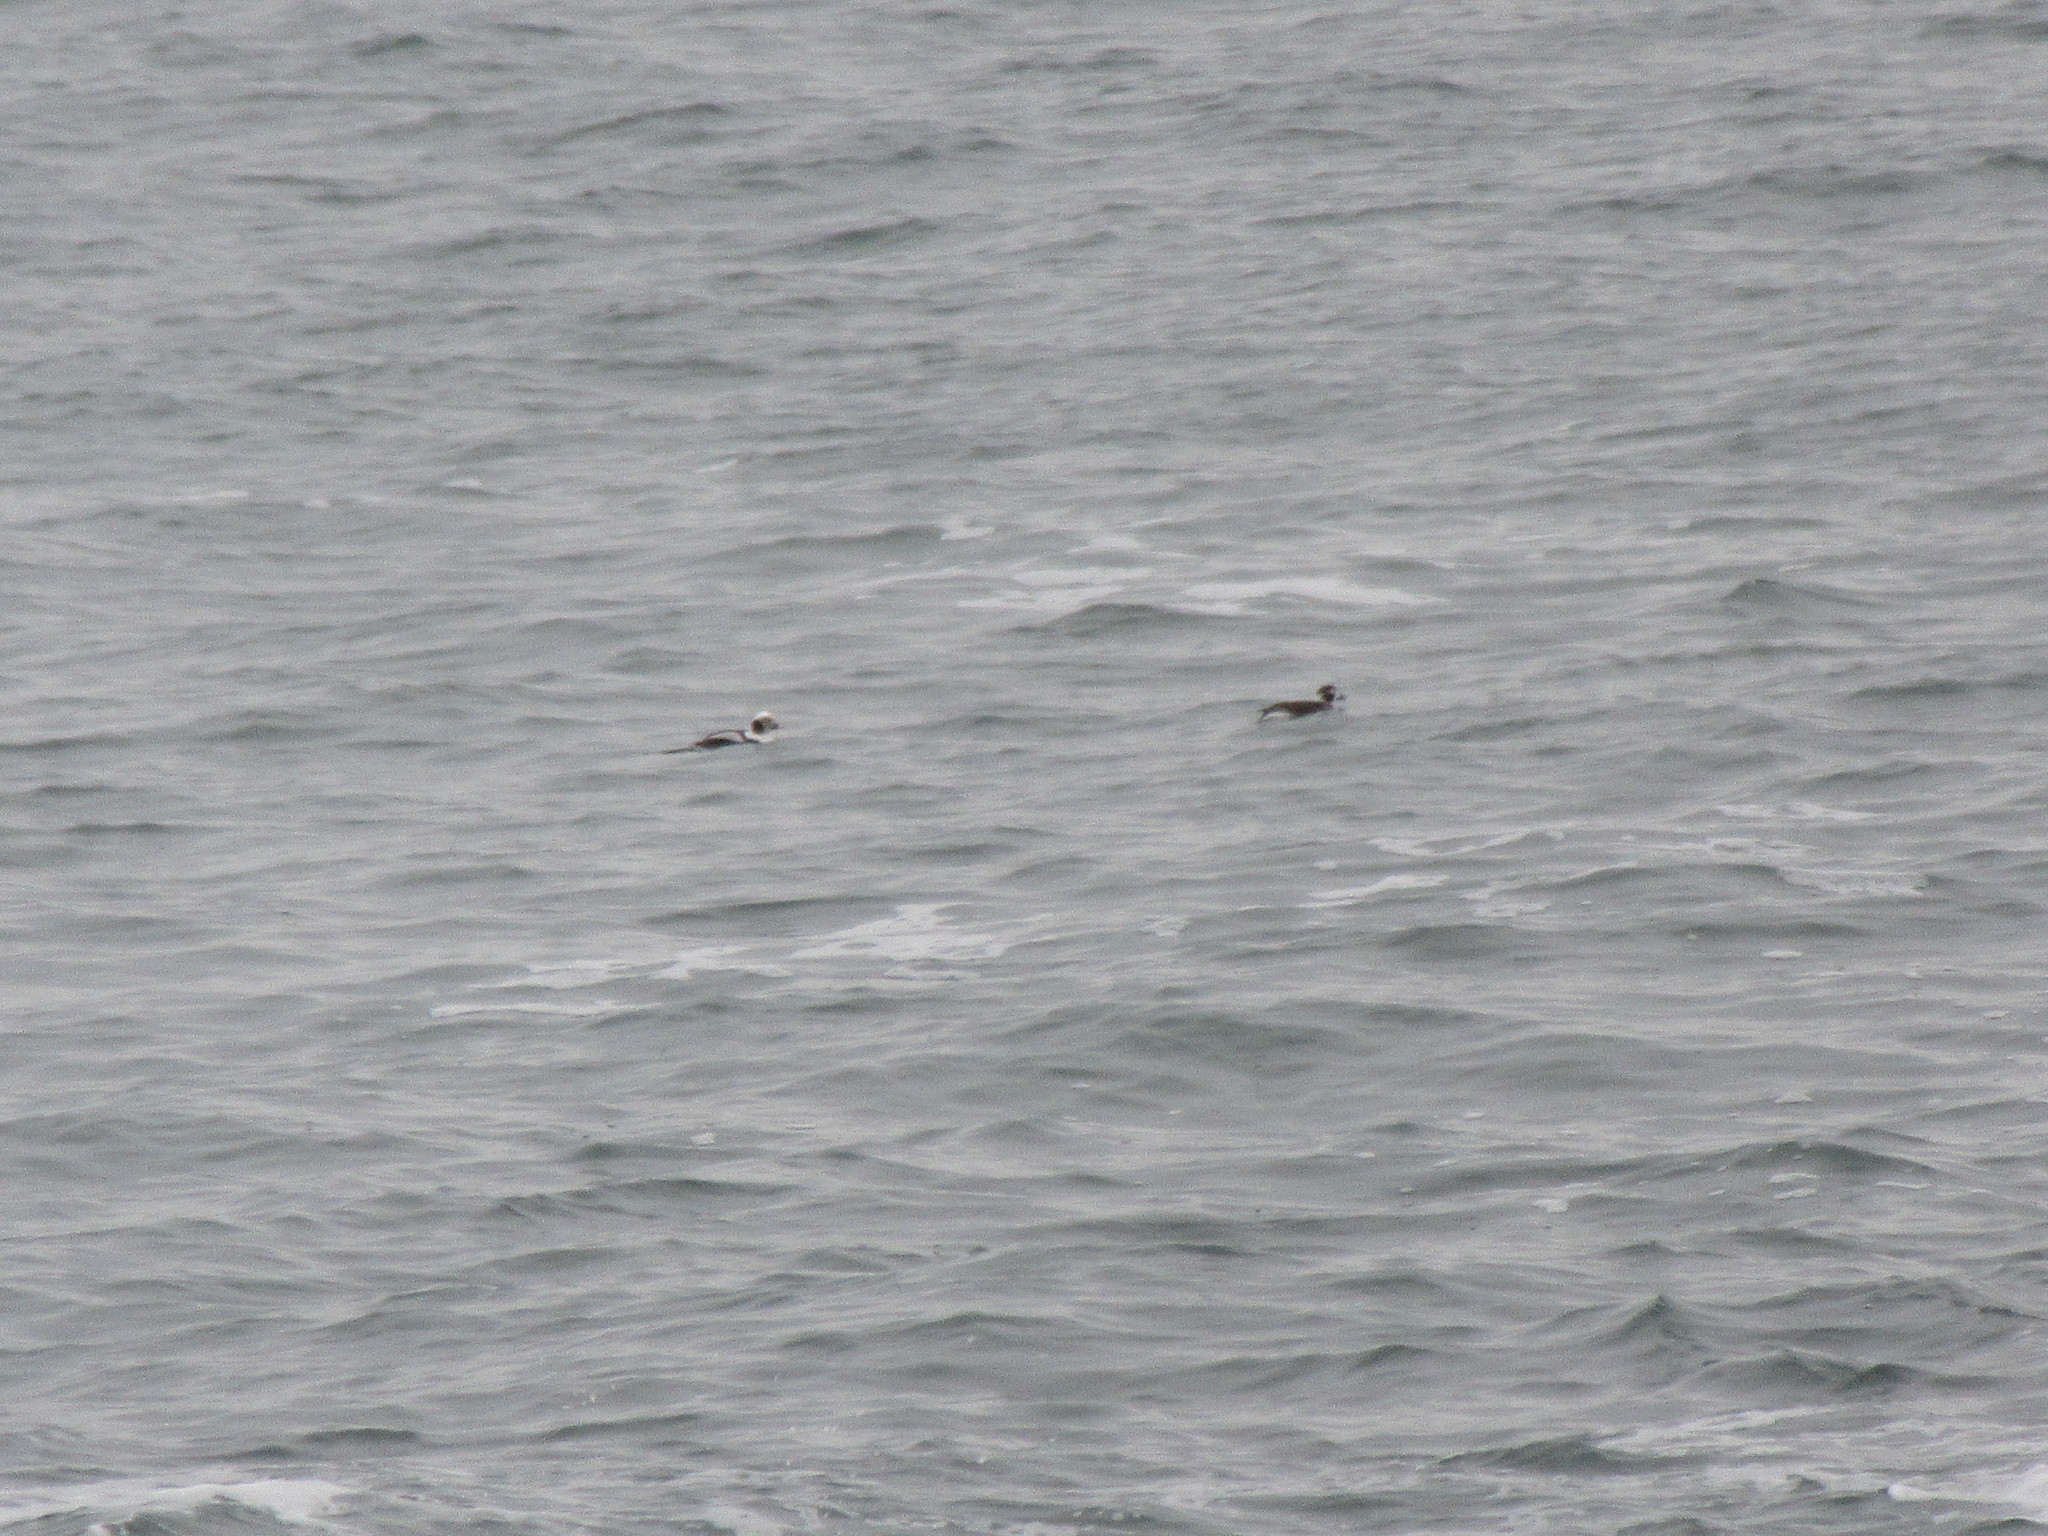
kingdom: Animalia
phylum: Chordata
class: Aves
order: Anseriformes
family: Anatidae
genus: Clangula
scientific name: Clangula hyemalis
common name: Long-tailed duck
